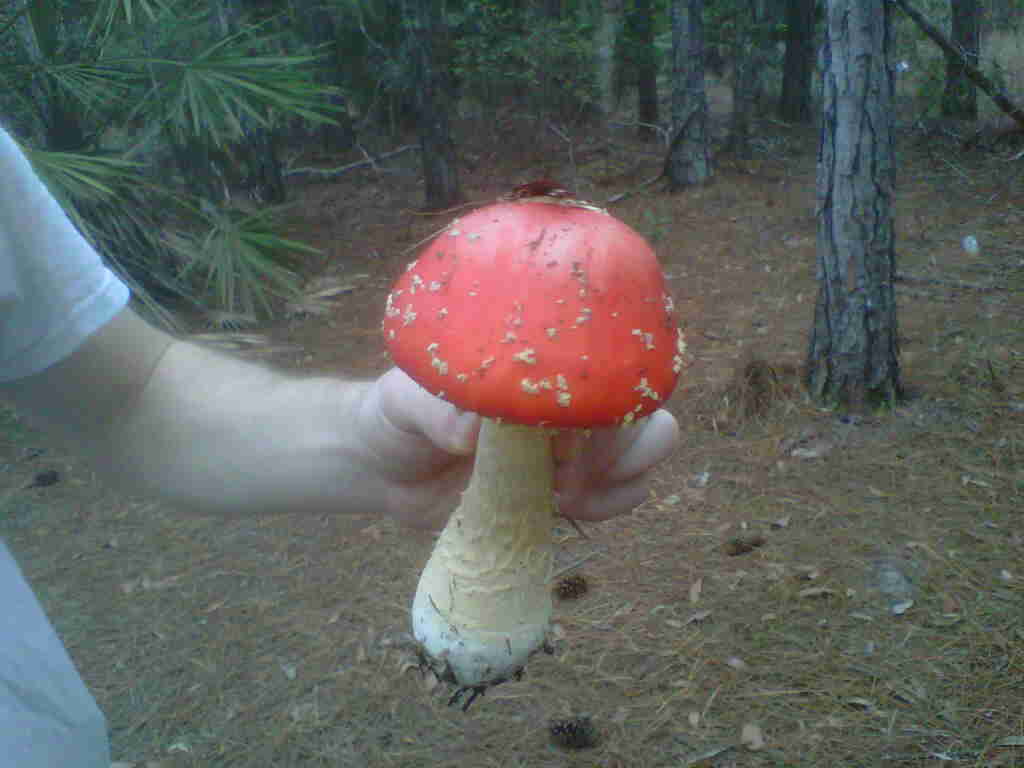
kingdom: Fungi
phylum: Basidiomycota
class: Agaricomycetes
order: Agaricales
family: Amanitaceae
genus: Amanita
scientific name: Amanita persicina
